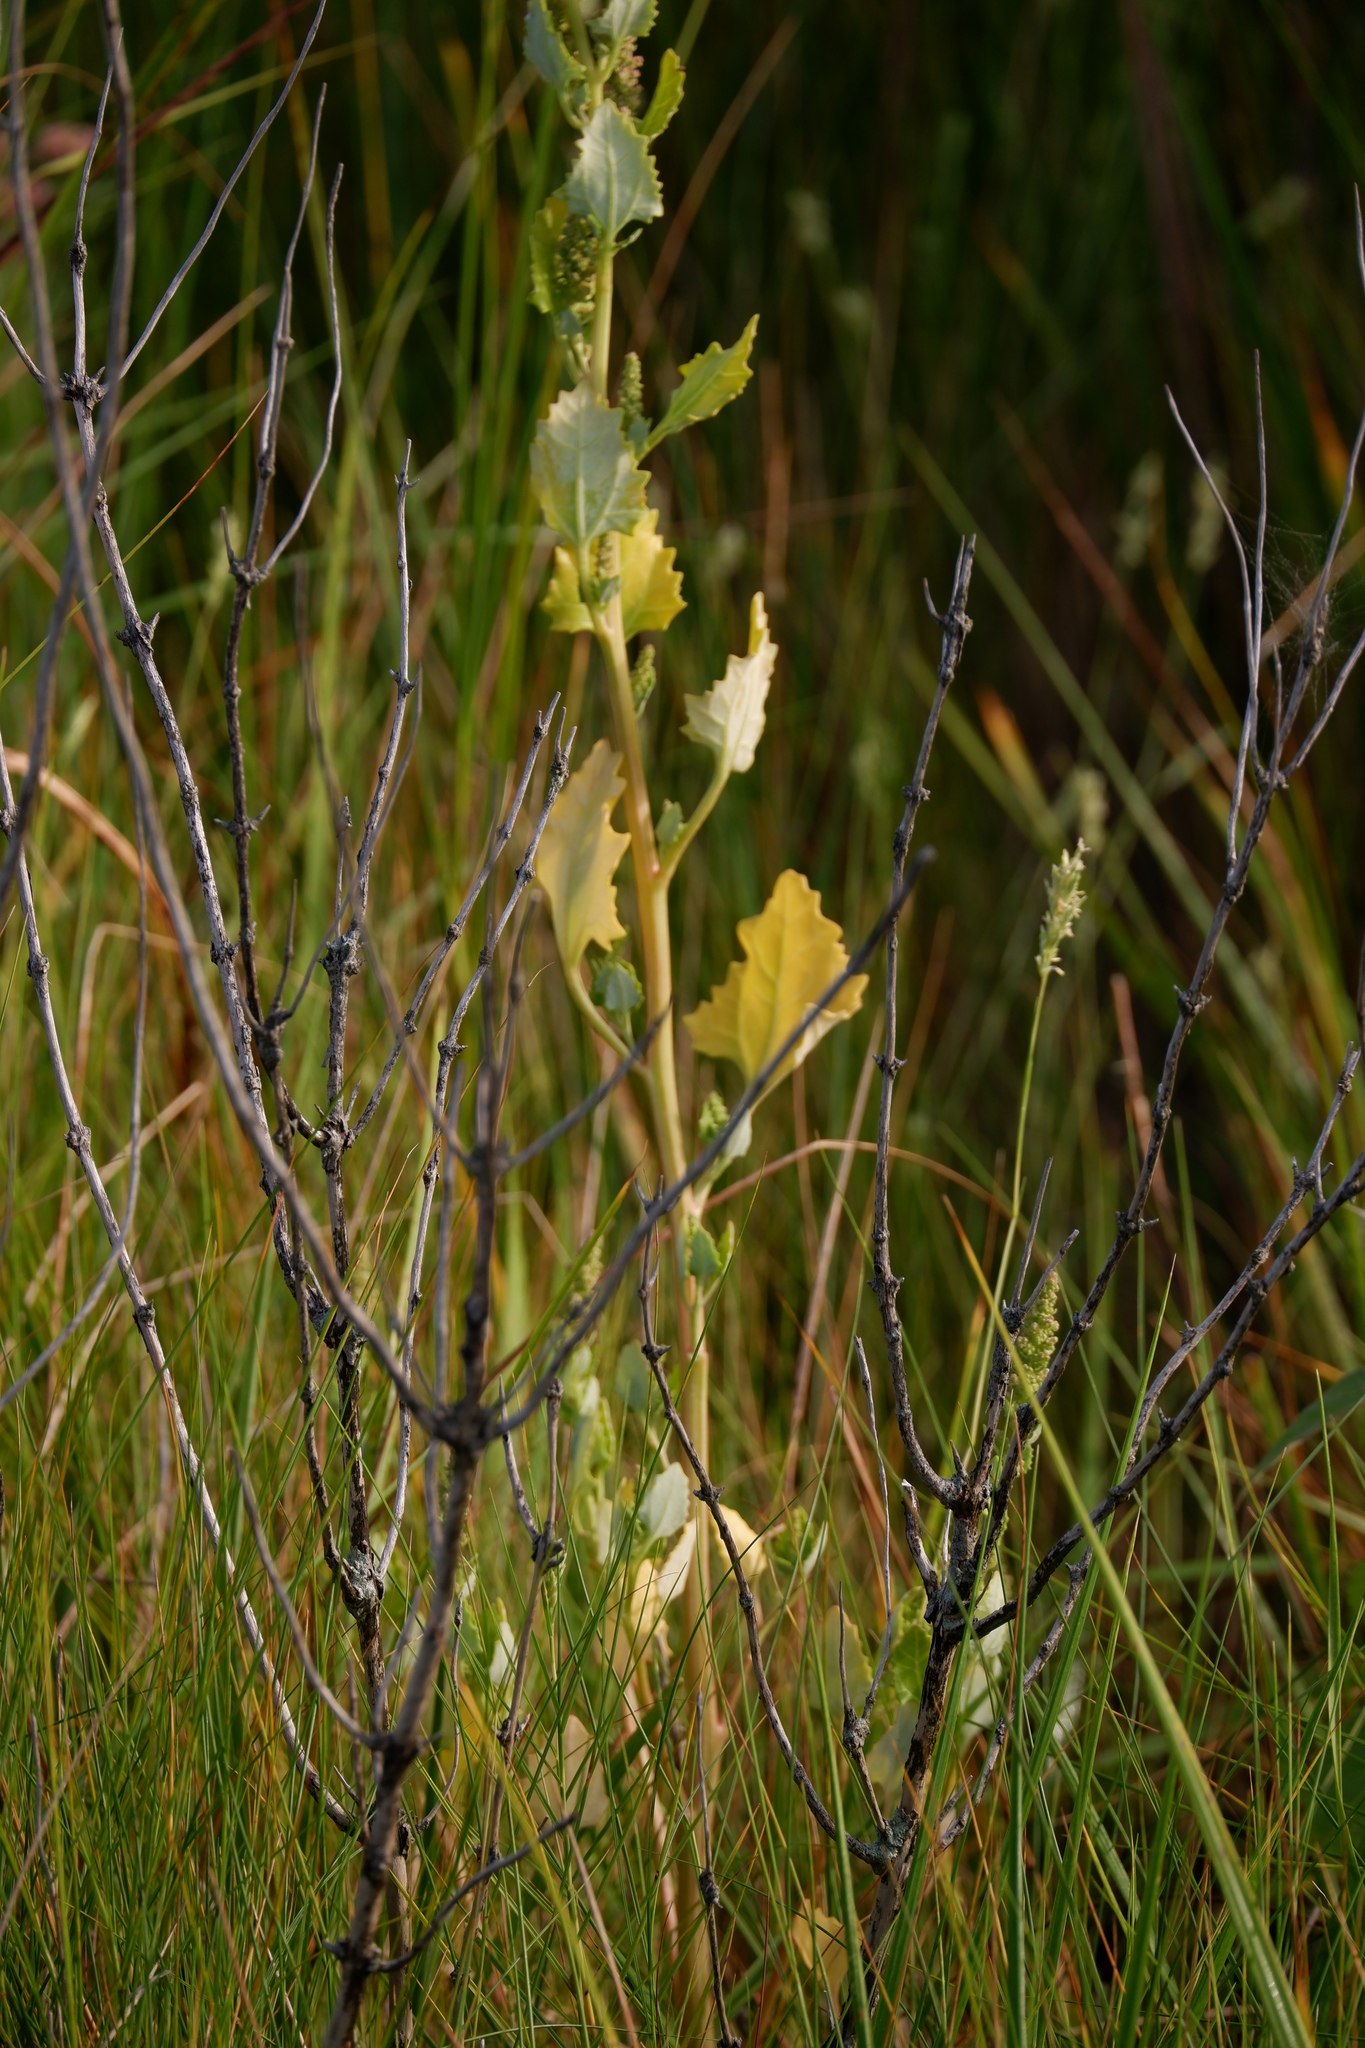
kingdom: Plantae
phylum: Tracheophyta
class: Magnoliopsida
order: Caryophyllales
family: Amaranthaceae
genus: Oxybasis
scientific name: Oxybasis
